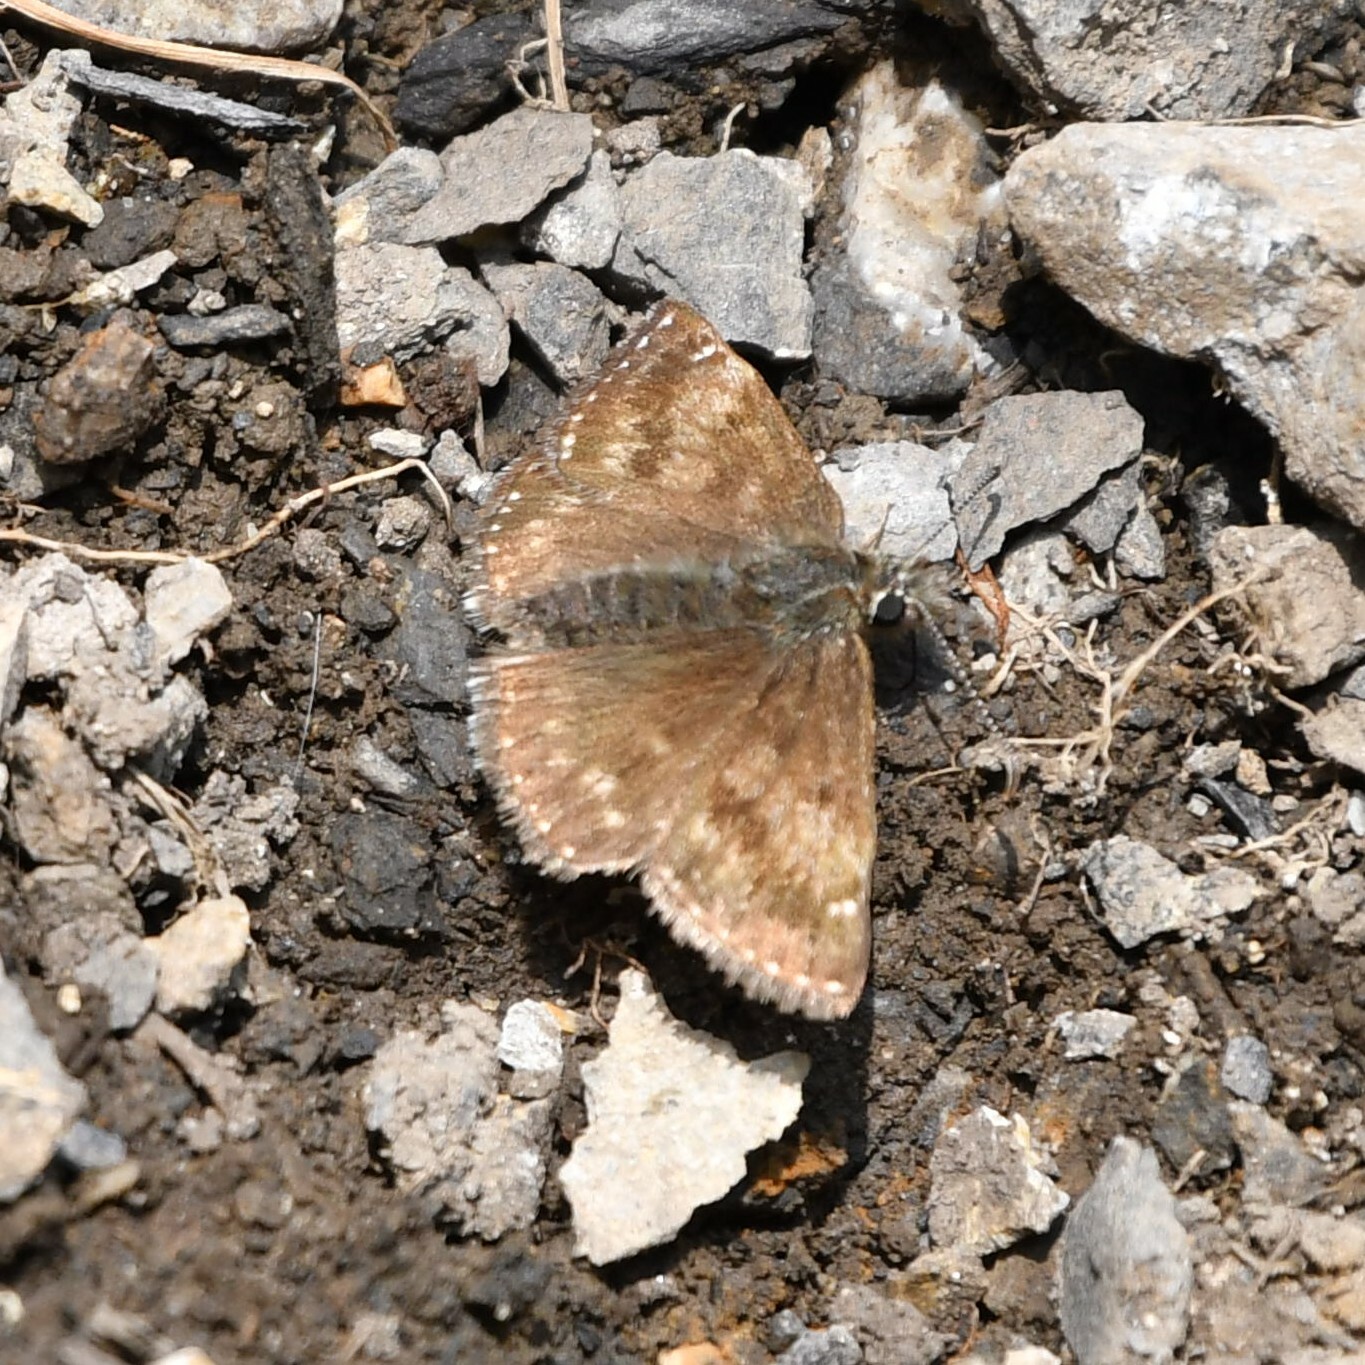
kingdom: Animalia
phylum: Arthropoda
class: Insecta
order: Lepidoptera
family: Hesperiidae
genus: Erynnis
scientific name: Erynnis tages
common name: Dingy skipper
